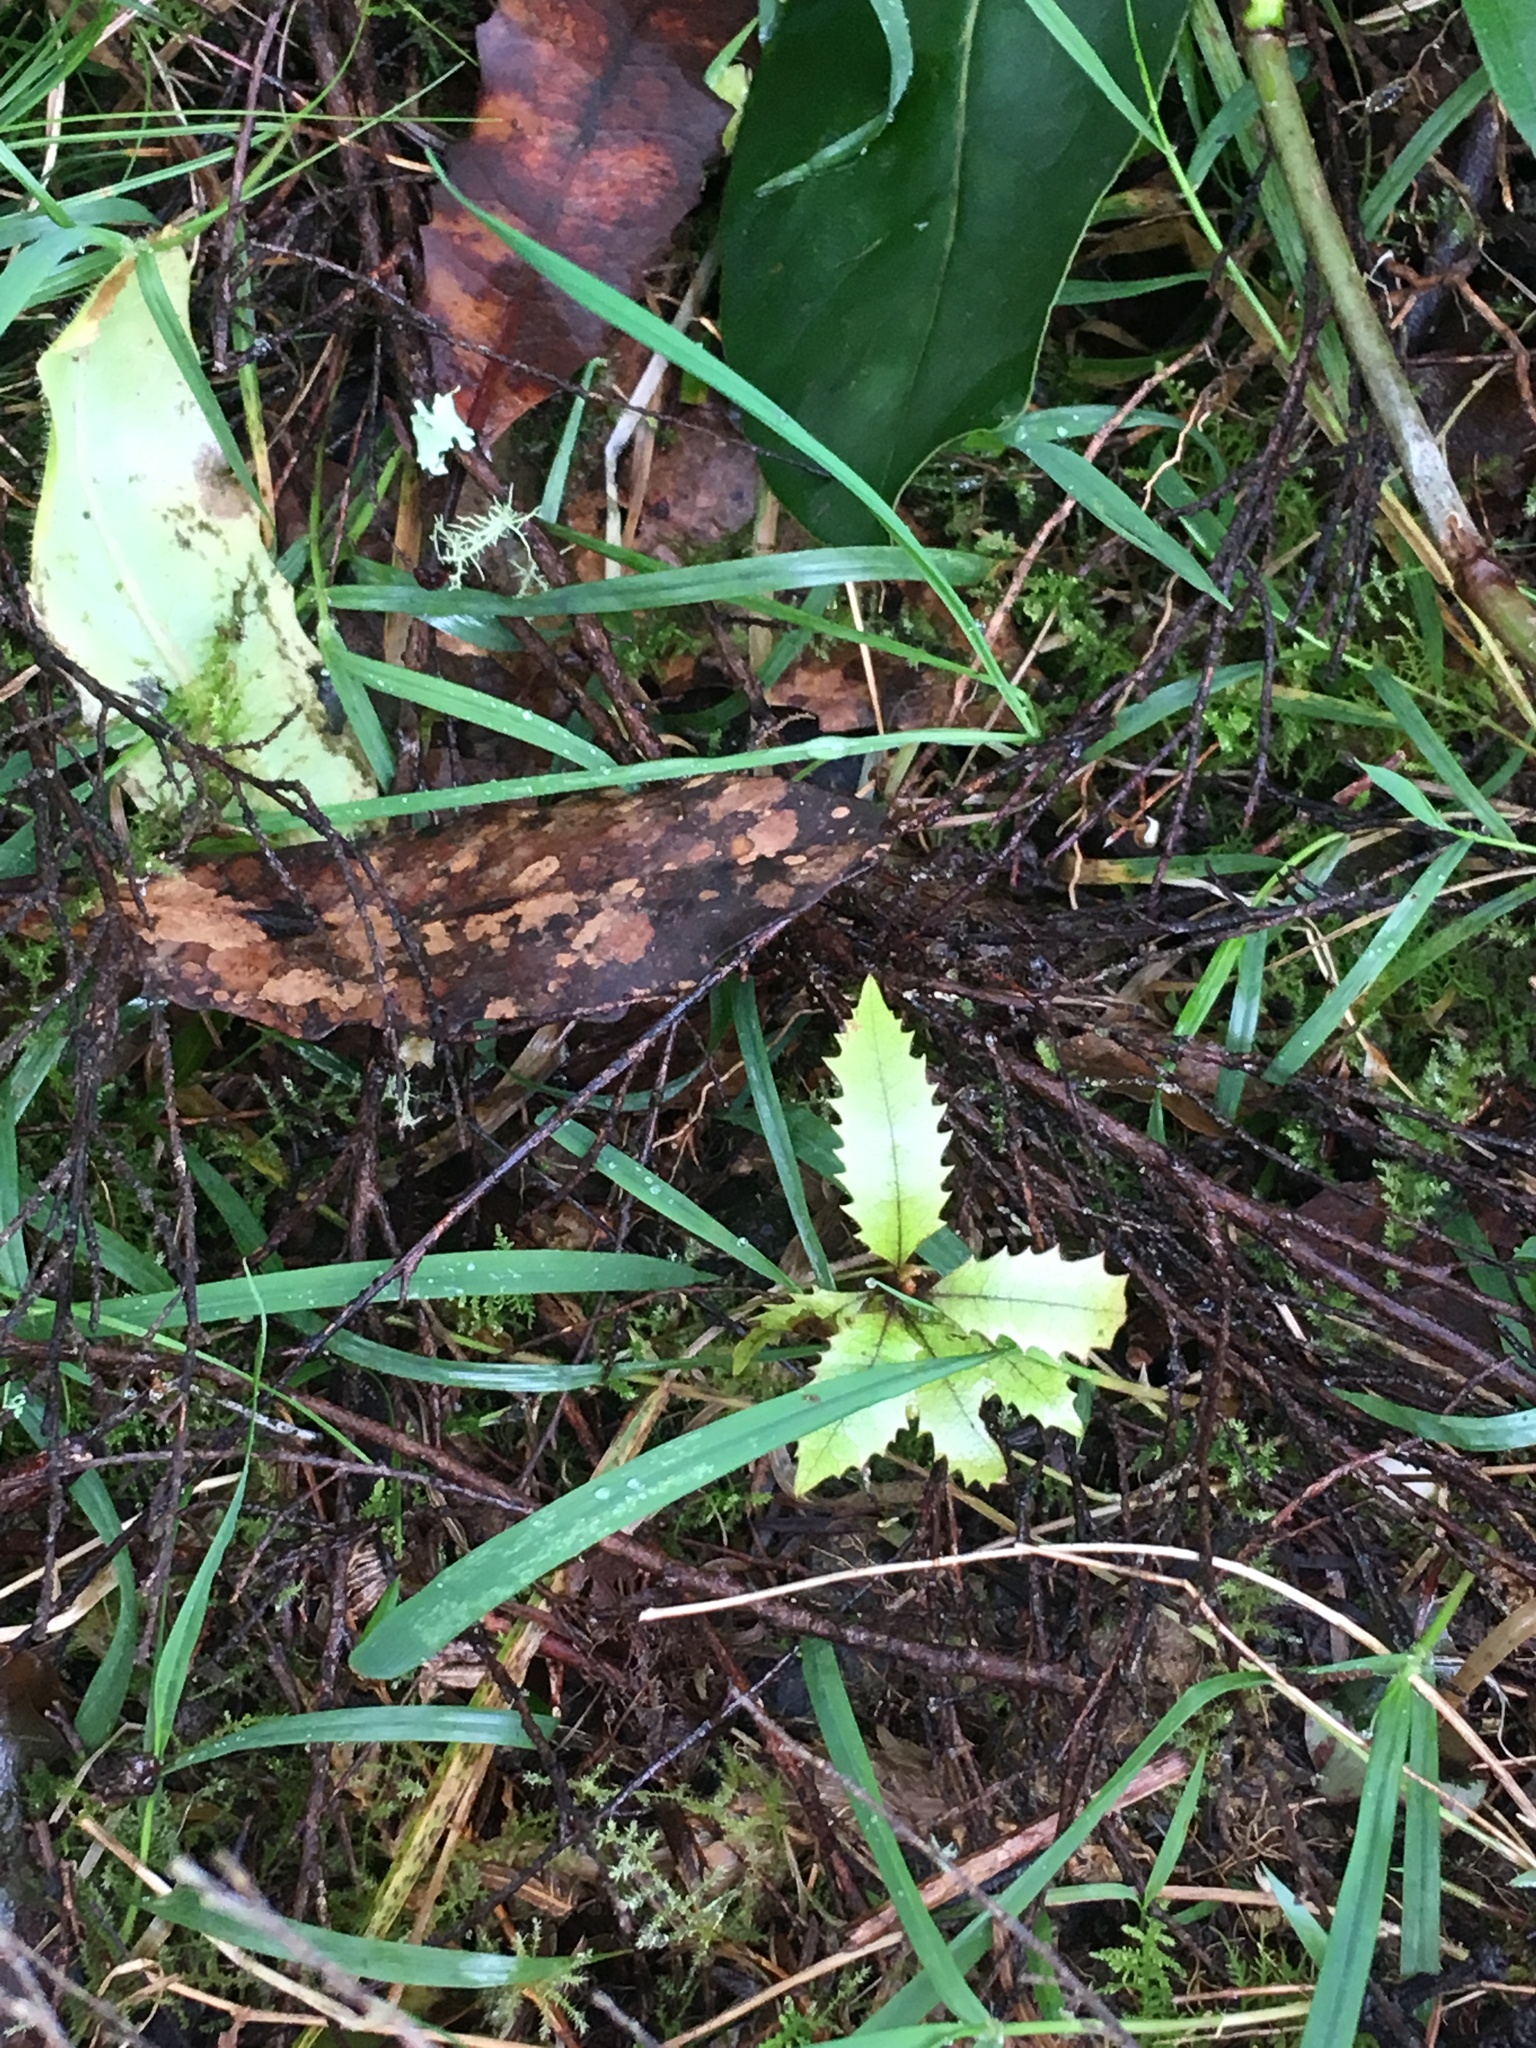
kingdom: Plantae
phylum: Tracheophyta
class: Magnoliopsida
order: Proteales
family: Proteaceae
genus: Knightia
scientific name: Knightia excelsa
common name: New zealand-honeysuckle
